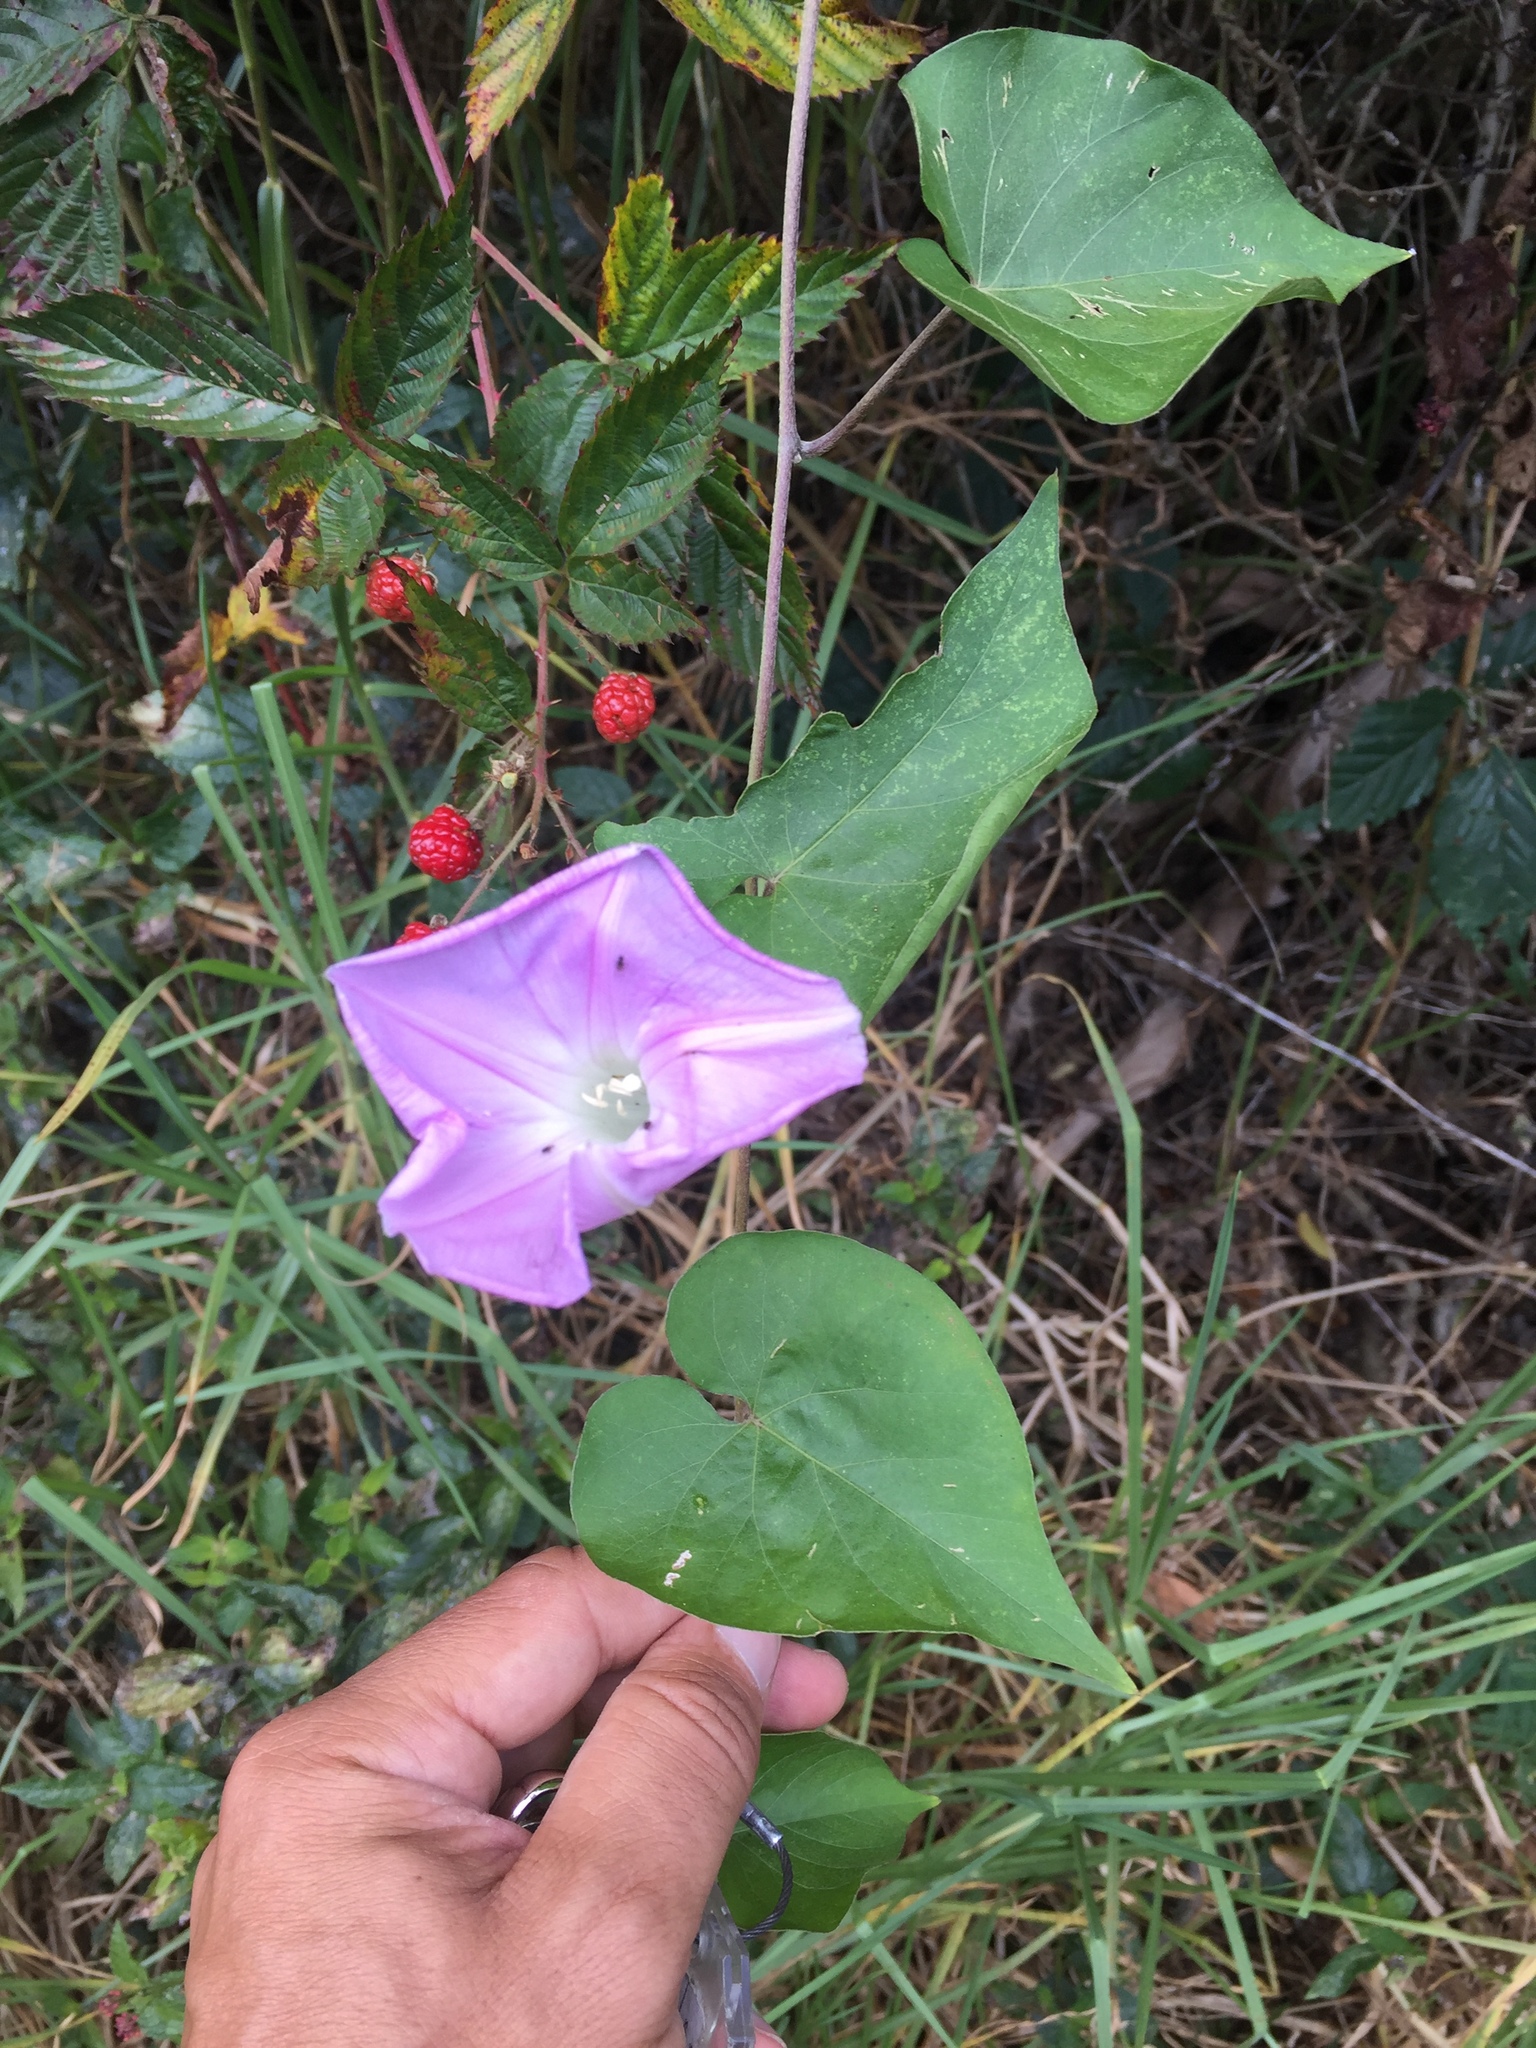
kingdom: Plantae
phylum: Tracheophyta
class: Magnoliopsida
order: Solanales
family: Convolvulaceae
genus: Ipomoea
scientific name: Ipomoea indica
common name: Blue dawnflower
